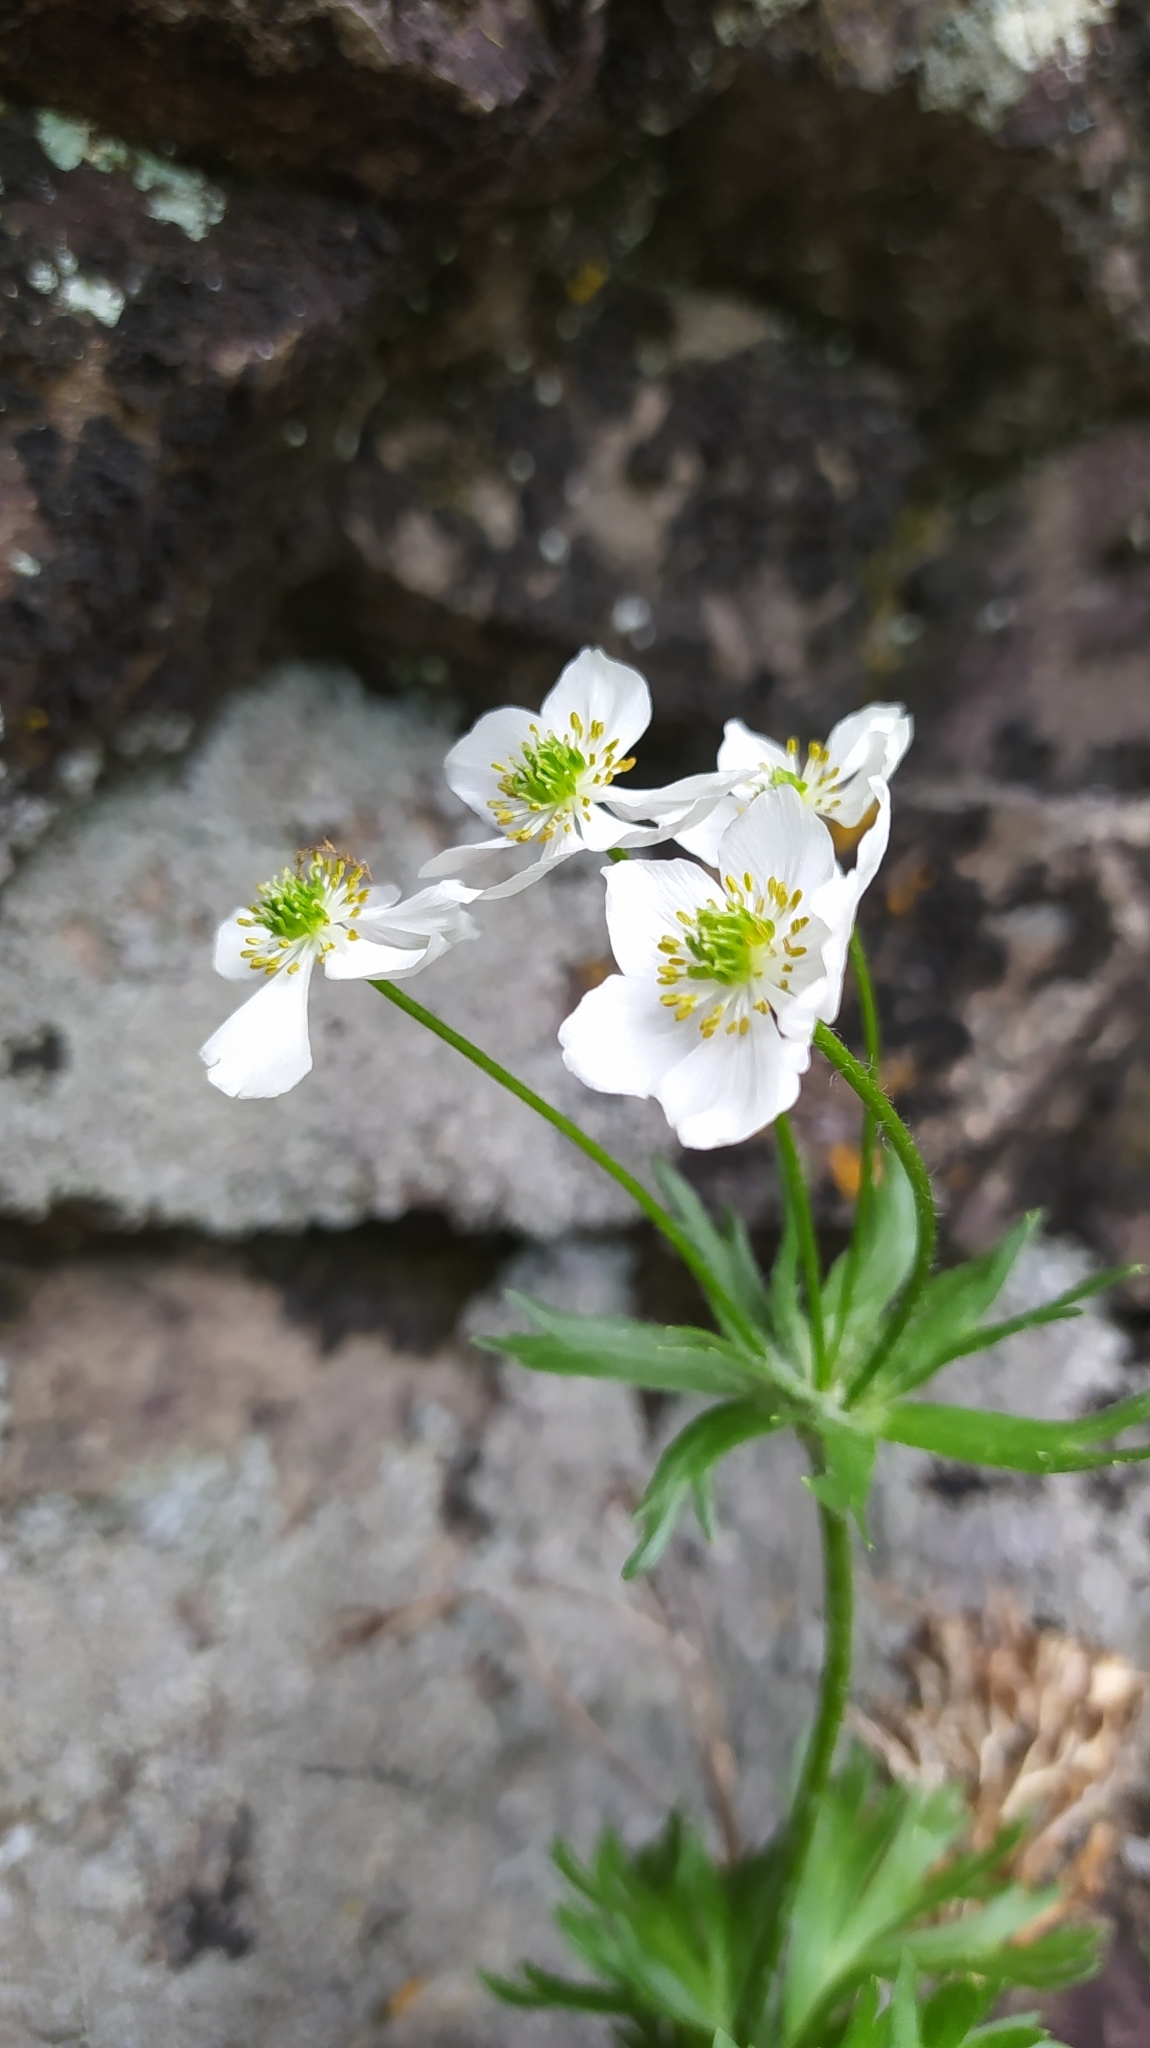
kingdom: Plantae
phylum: Tracheophyta
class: Magnoliopsida
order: Ranunculales
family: Ranunculaceae
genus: Anemonastrum
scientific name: Anemonastrum narcissiflorum
